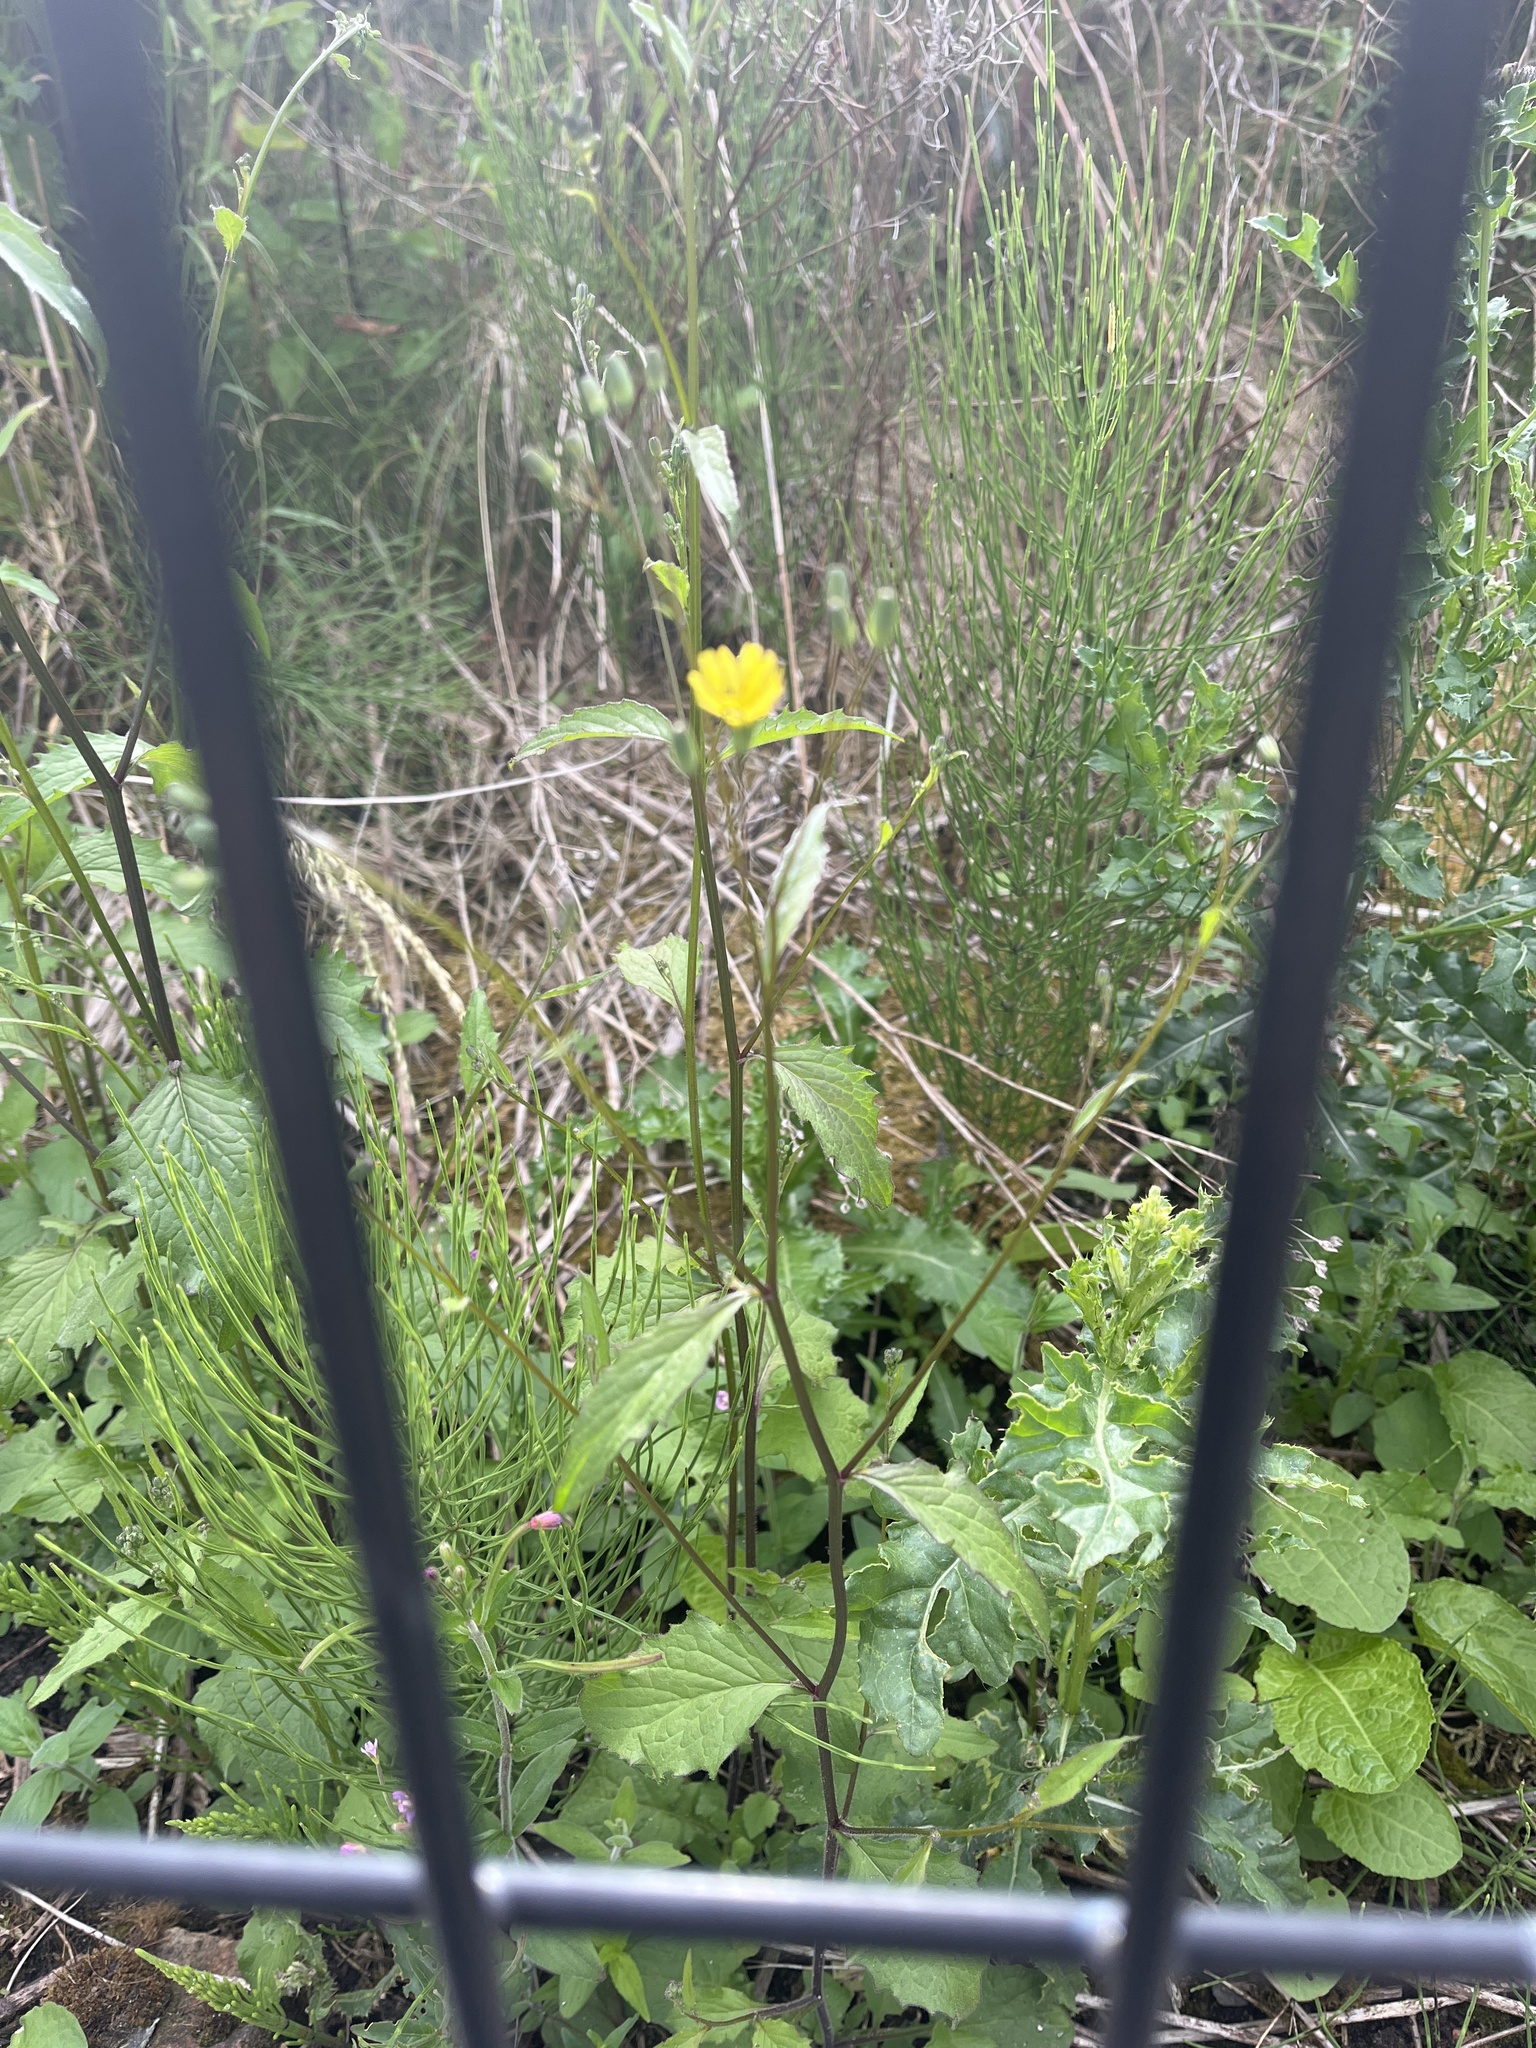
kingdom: Plantae
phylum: Tracheophyta
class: Magnoliopsida
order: Asterales
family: Asteraceae
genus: Lapsana
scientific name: Lapsana communis
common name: Nipplewort
